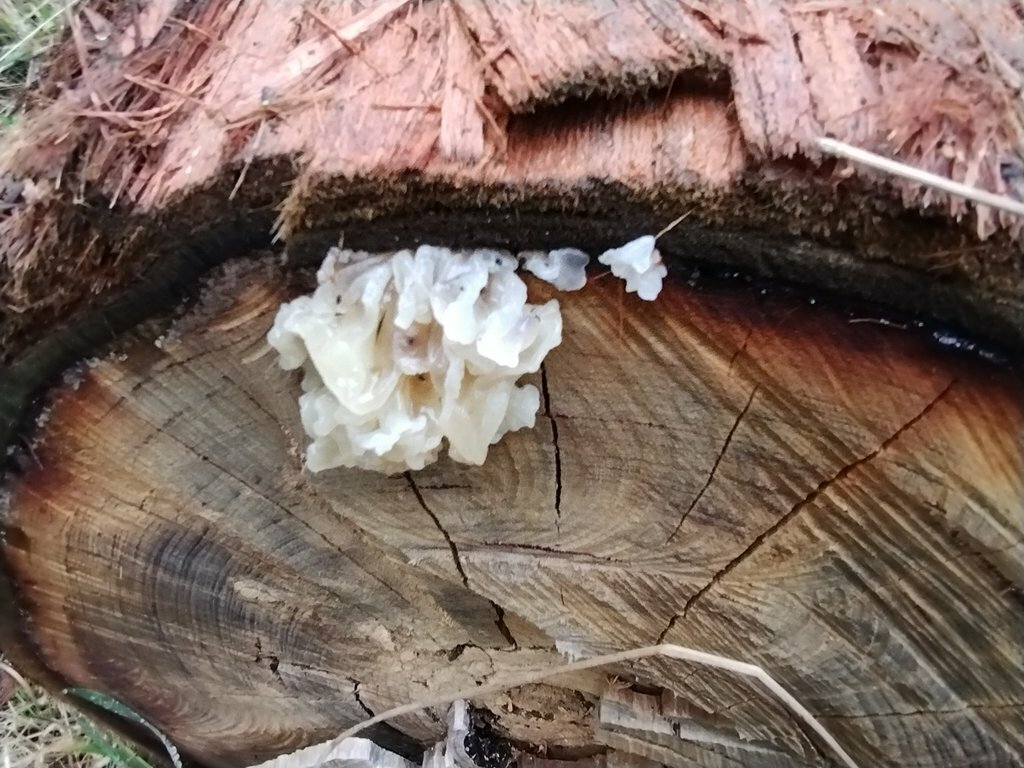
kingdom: Fungi
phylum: Basidiomycota
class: Tremellomycetes
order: Tremellales
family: Tremellaceae
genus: Tremella
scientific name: Tremella fuciformis
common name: Snow fungus
